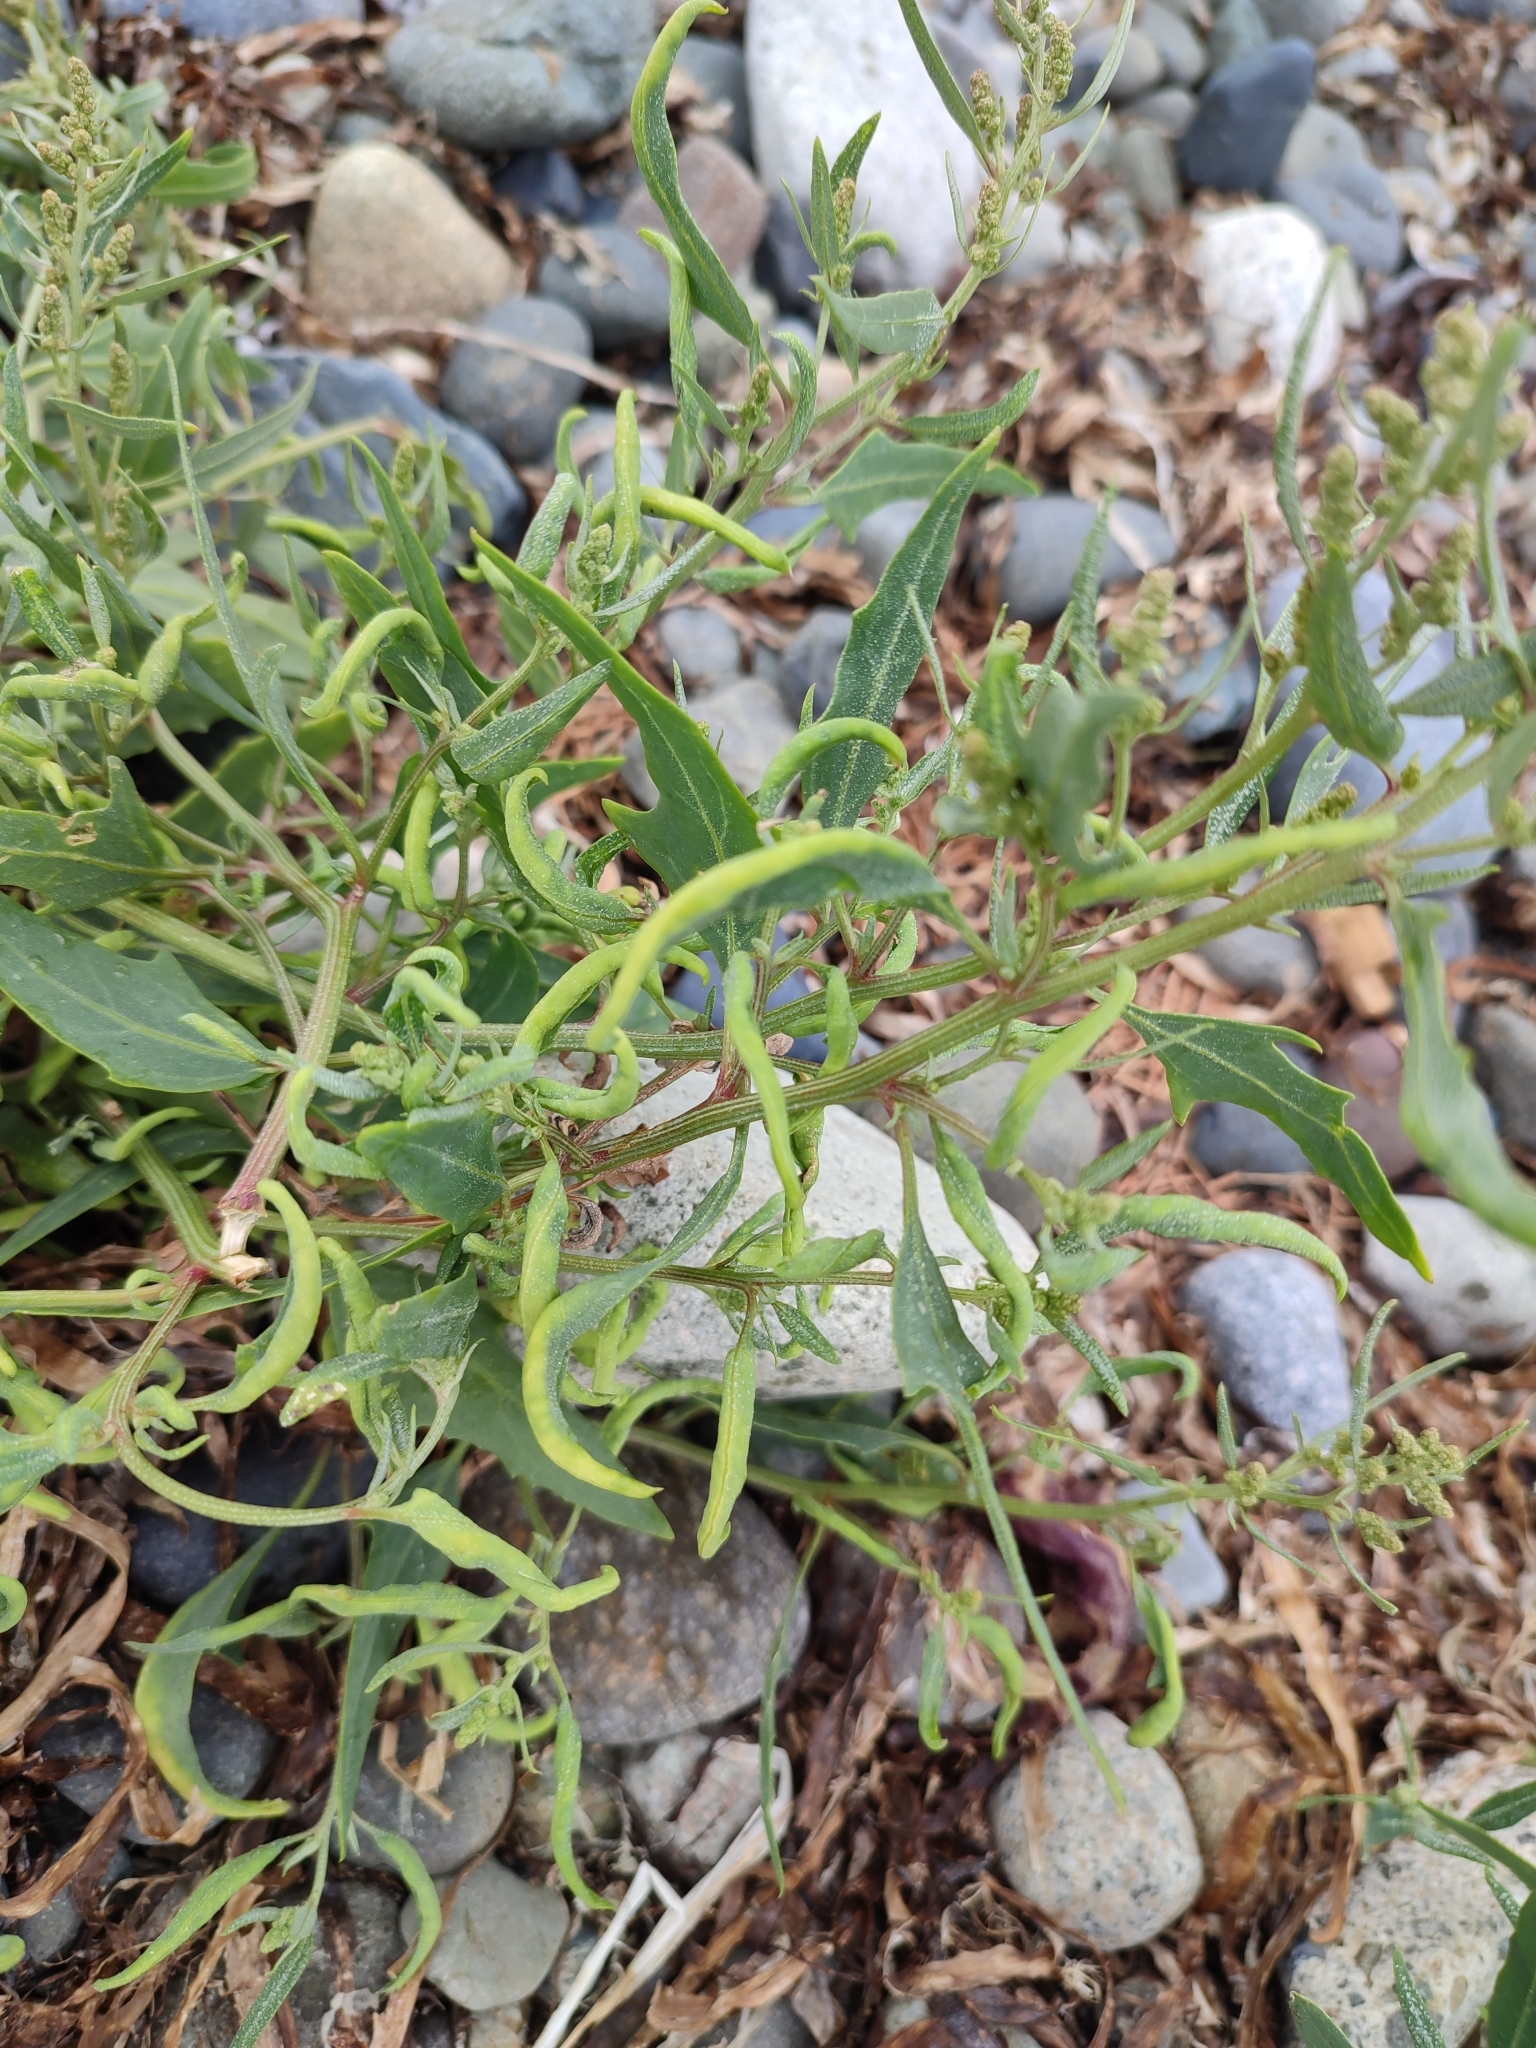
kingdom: Animalia
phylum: Arthropoda
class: Insecta
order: Hemiptera
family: Aphididae
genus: Hayhurstia
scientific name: Hayhurstia atriplicis
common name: Chenopodium aphid
